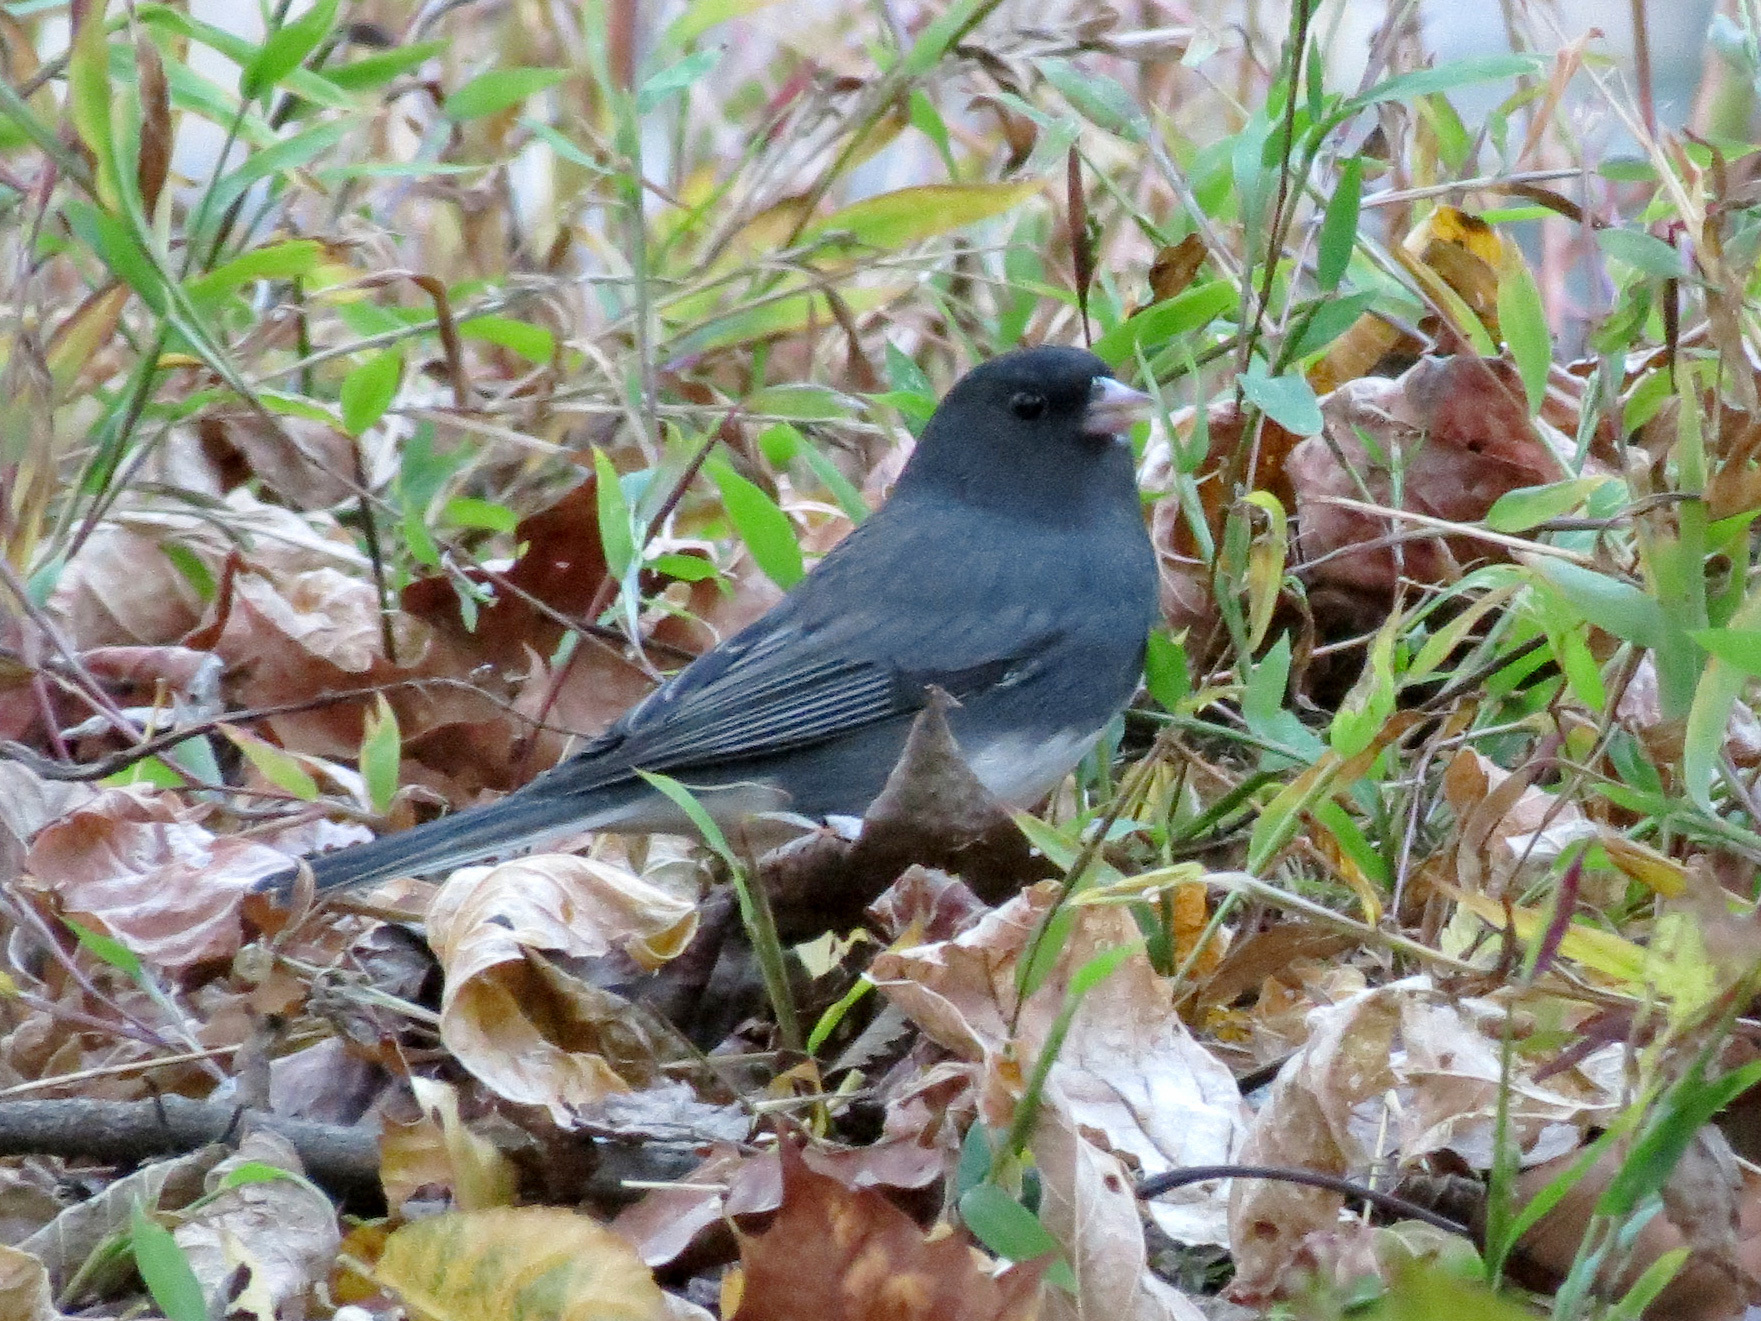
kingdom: Animalia
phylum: Chordata
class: Aves
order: Passeriformes
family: Passerellidae
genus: Junco
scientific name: Junco hyemalis
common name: Dark-eyed junco
